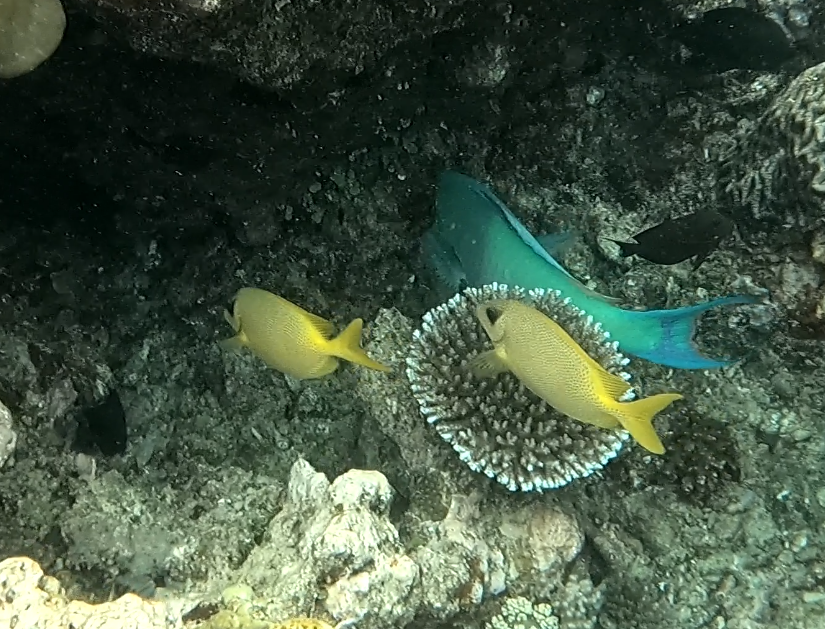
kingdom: Animalia
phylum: Chordata
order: Perciformes
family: Siganidae
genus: Siganus
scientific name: Siganus corallinus
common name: Coral rabbitfish
